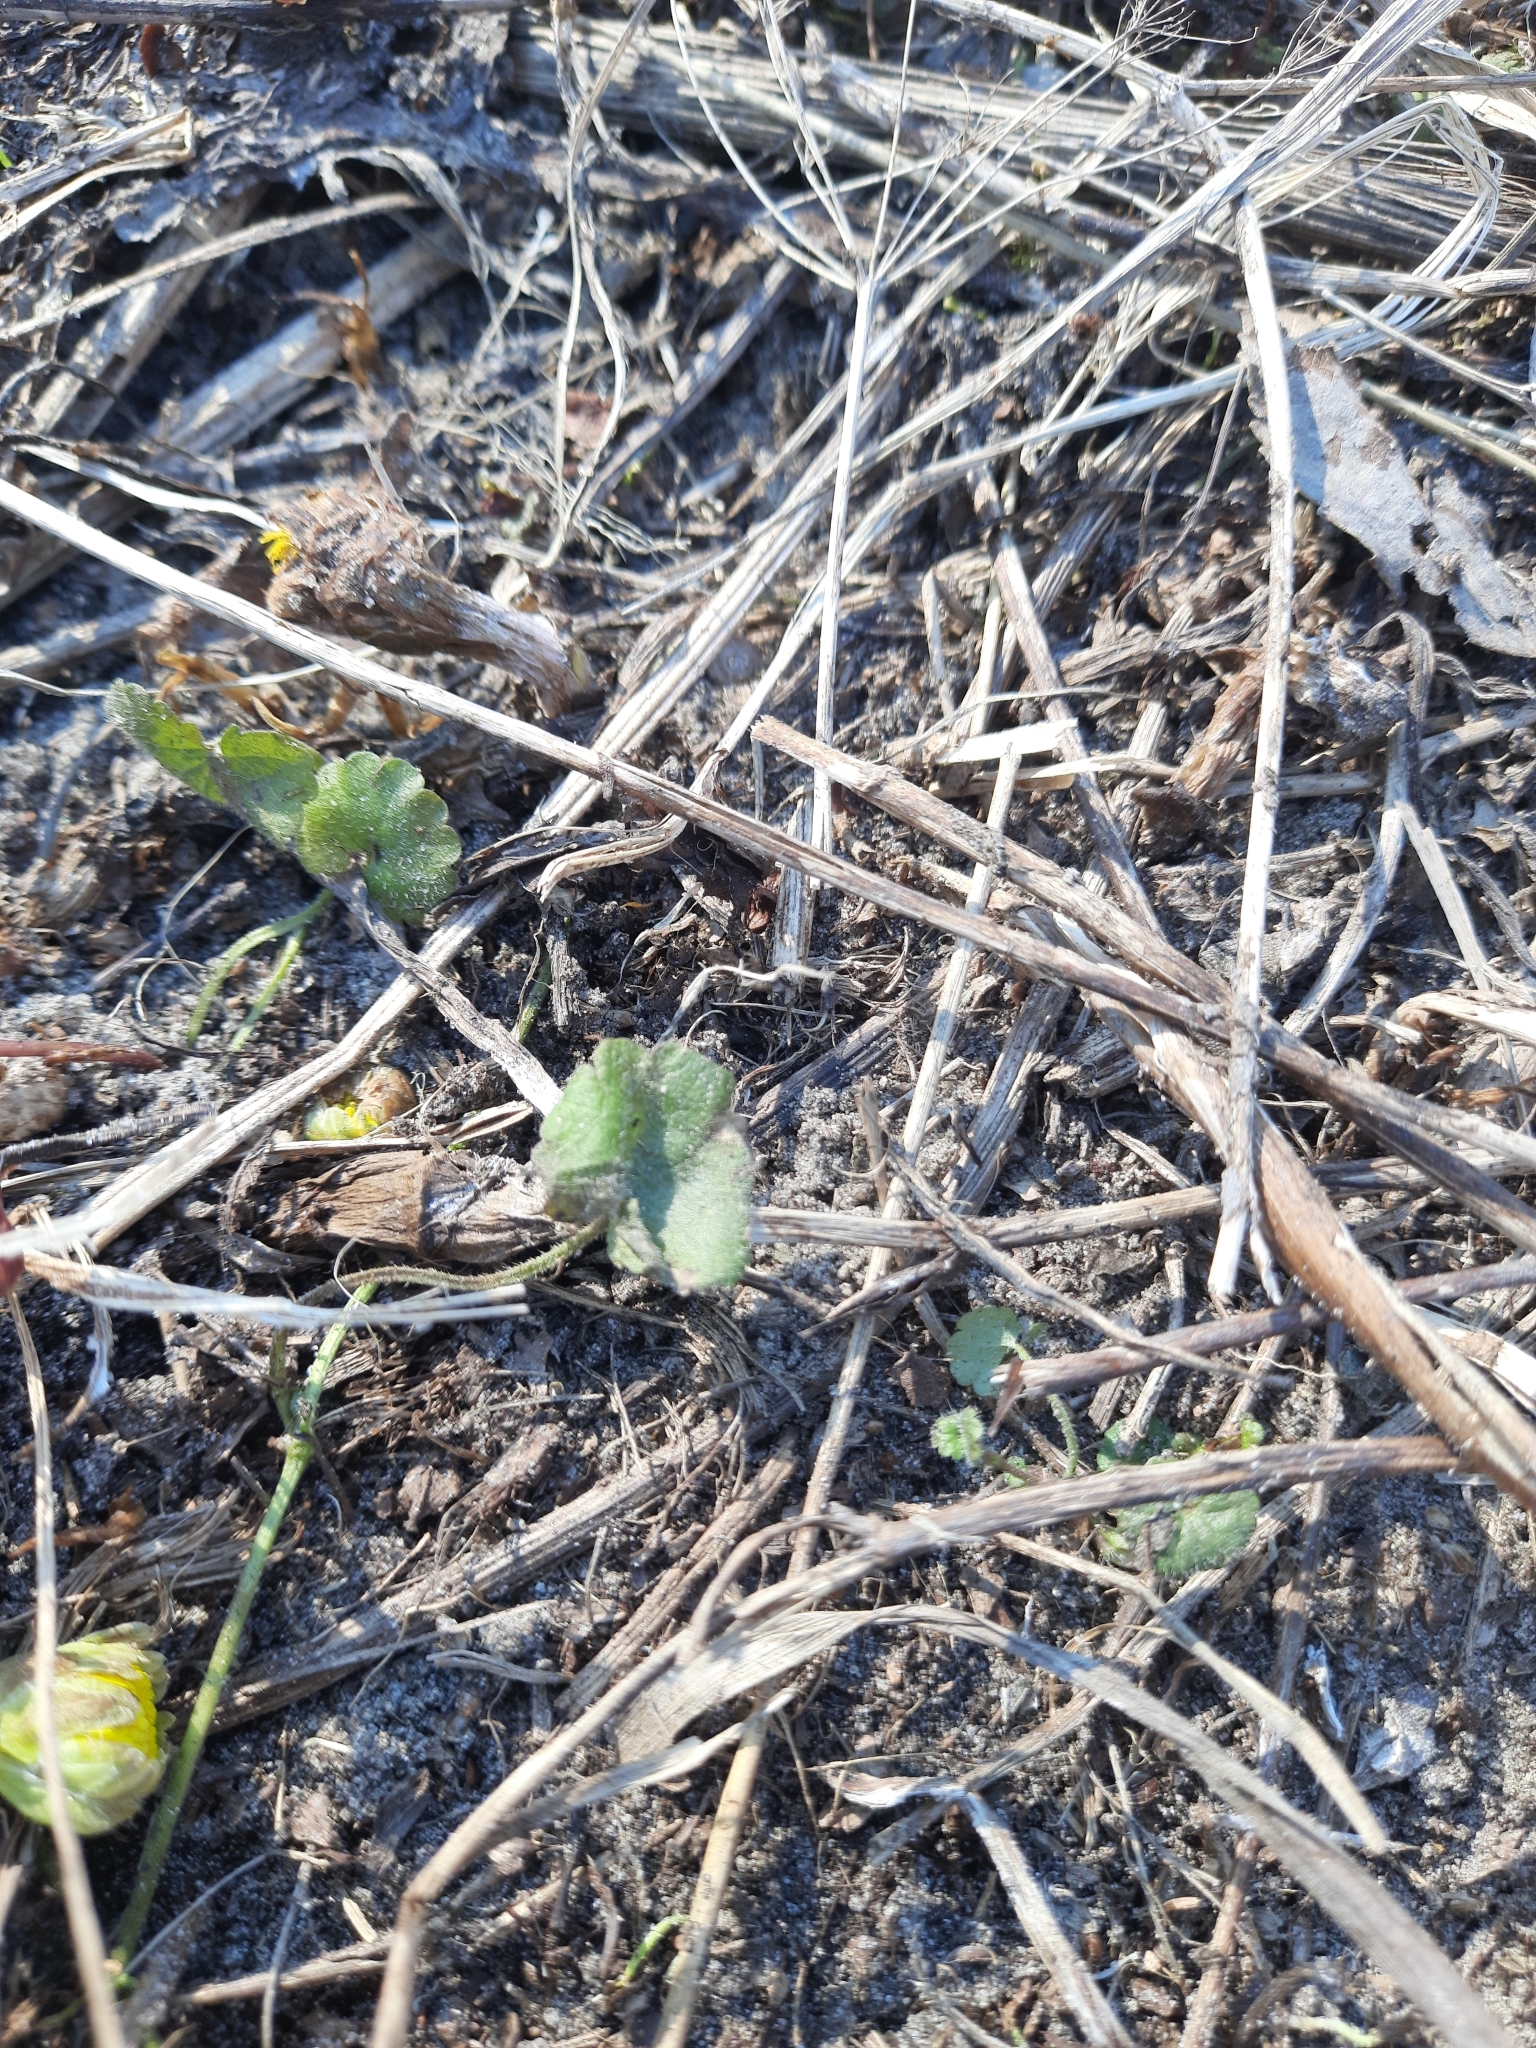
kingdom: Plantae
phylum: Tracheophyta
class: Magnoliopsida
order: Lamiales
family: Lamiaceae
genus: Glechoma
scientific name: Glechoma hederacea
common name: Ground ivy
